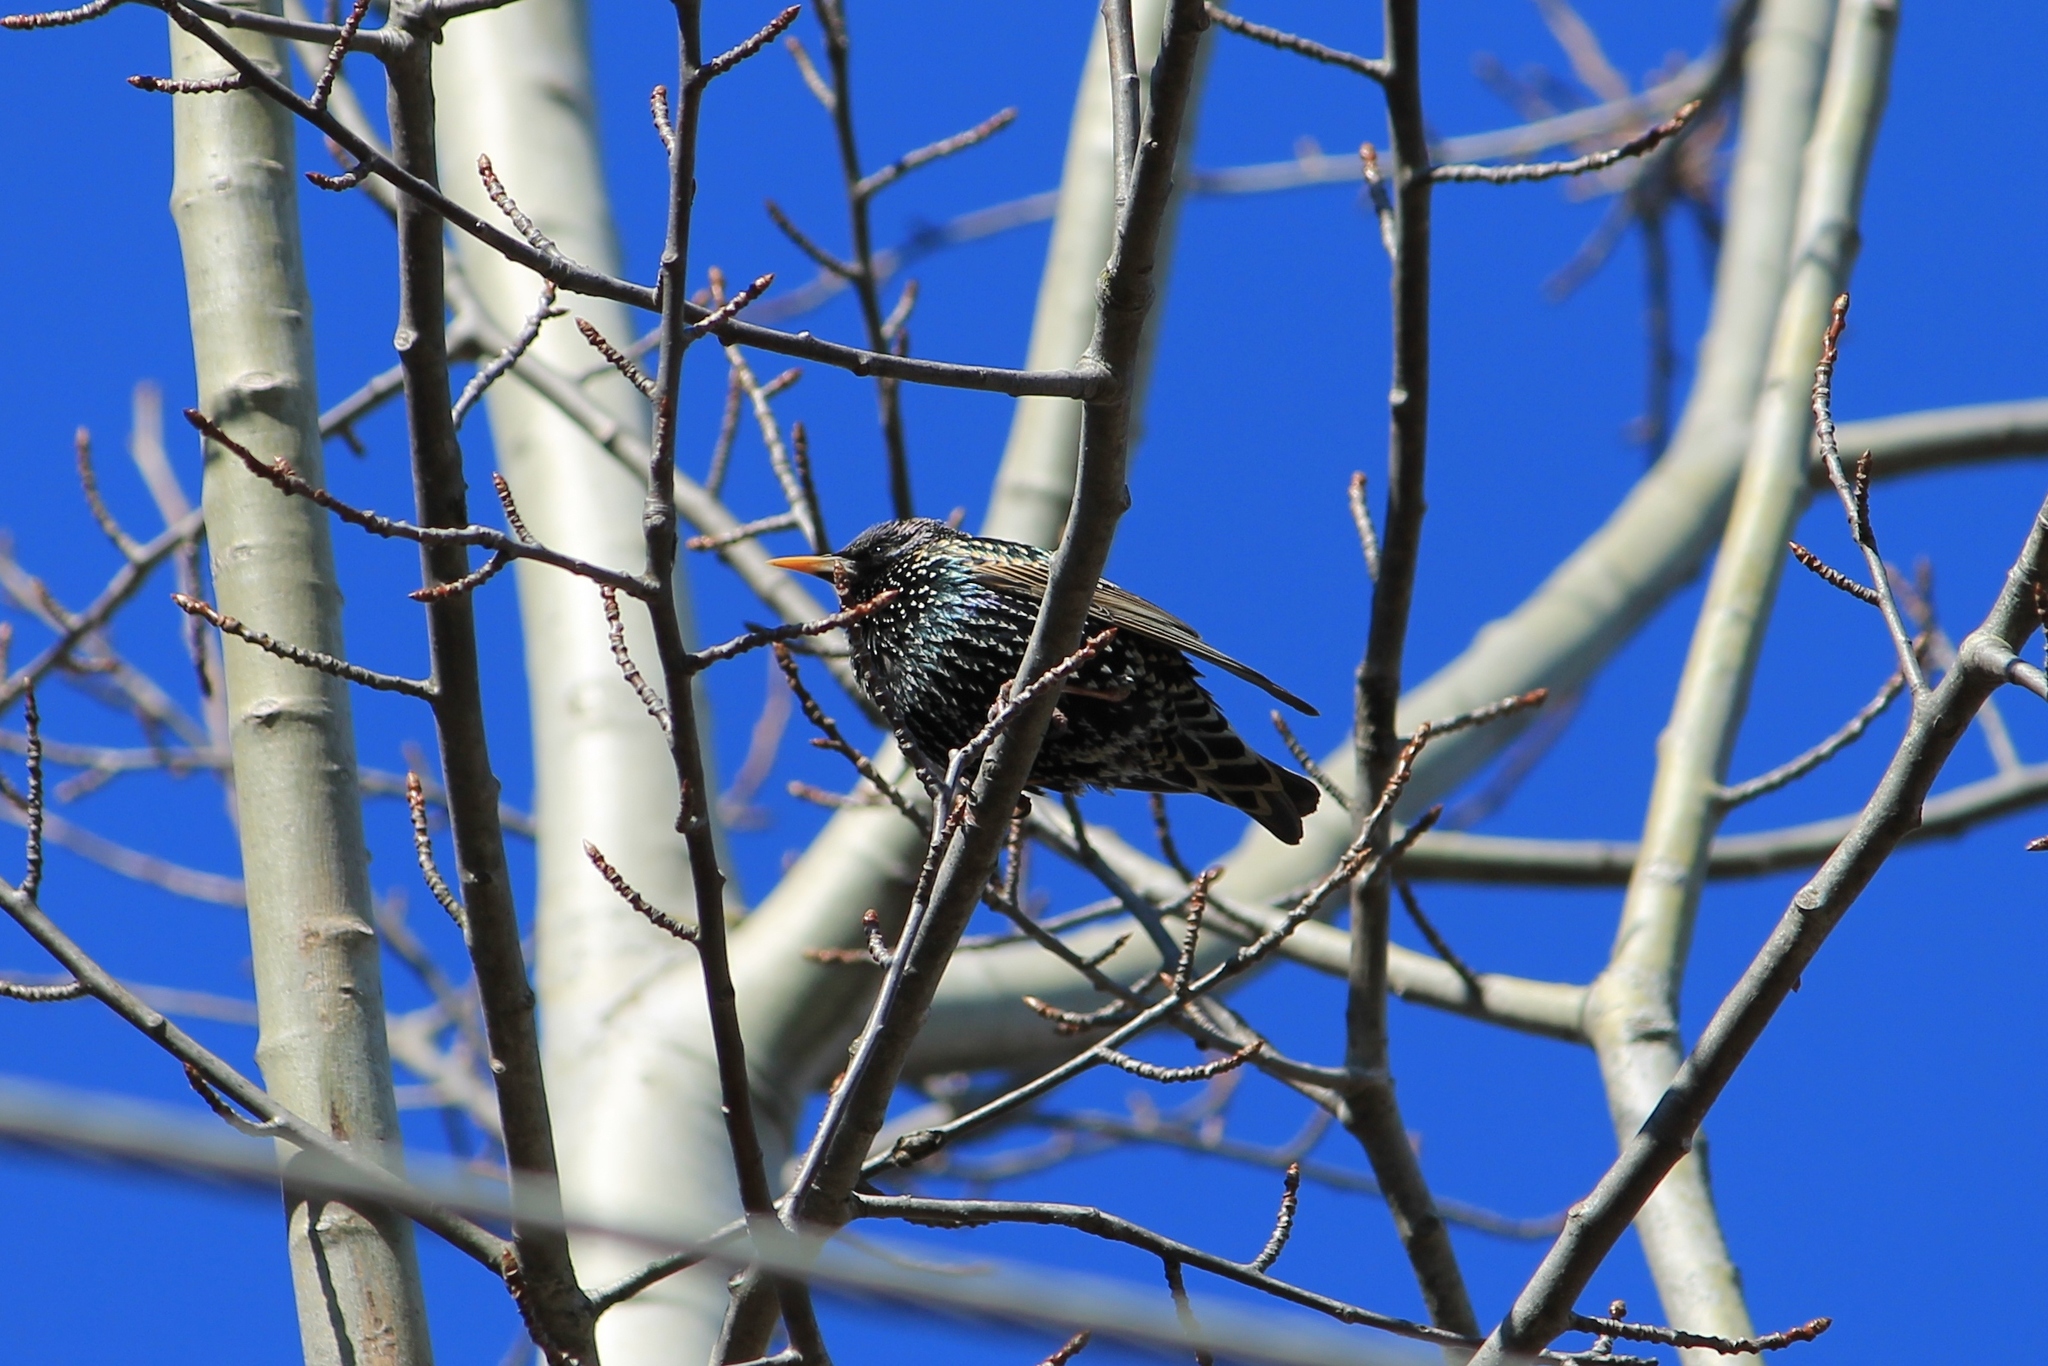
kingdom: Animalia
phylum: Chordata
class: Aves
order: Passeriformes
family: Sturnidae
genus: Sturnus
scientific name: Sturnus vulgaris
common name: Common starling
